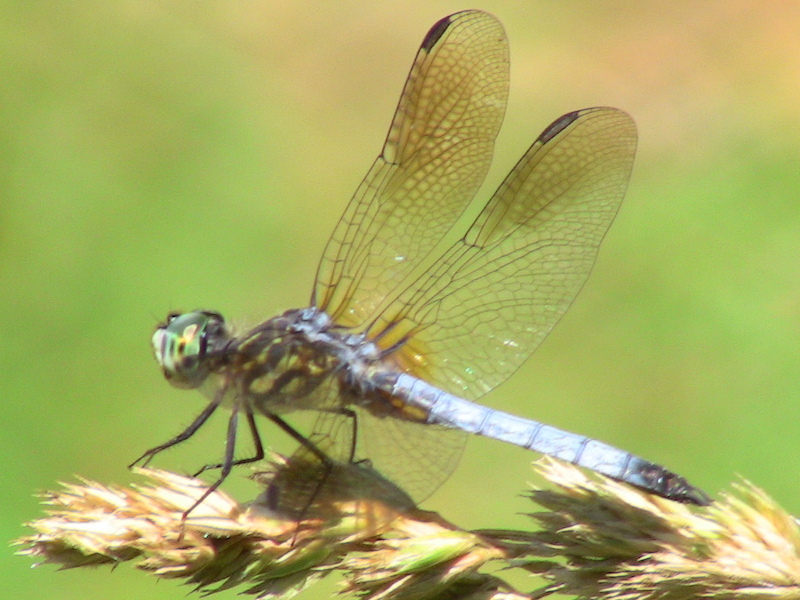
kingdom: Animalia
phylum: Arthropoda
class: Insecta
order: Odonata
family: Libellulidae
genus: Pachydiplax
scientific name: Pachydiplax longipennis
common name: Blue dasher
